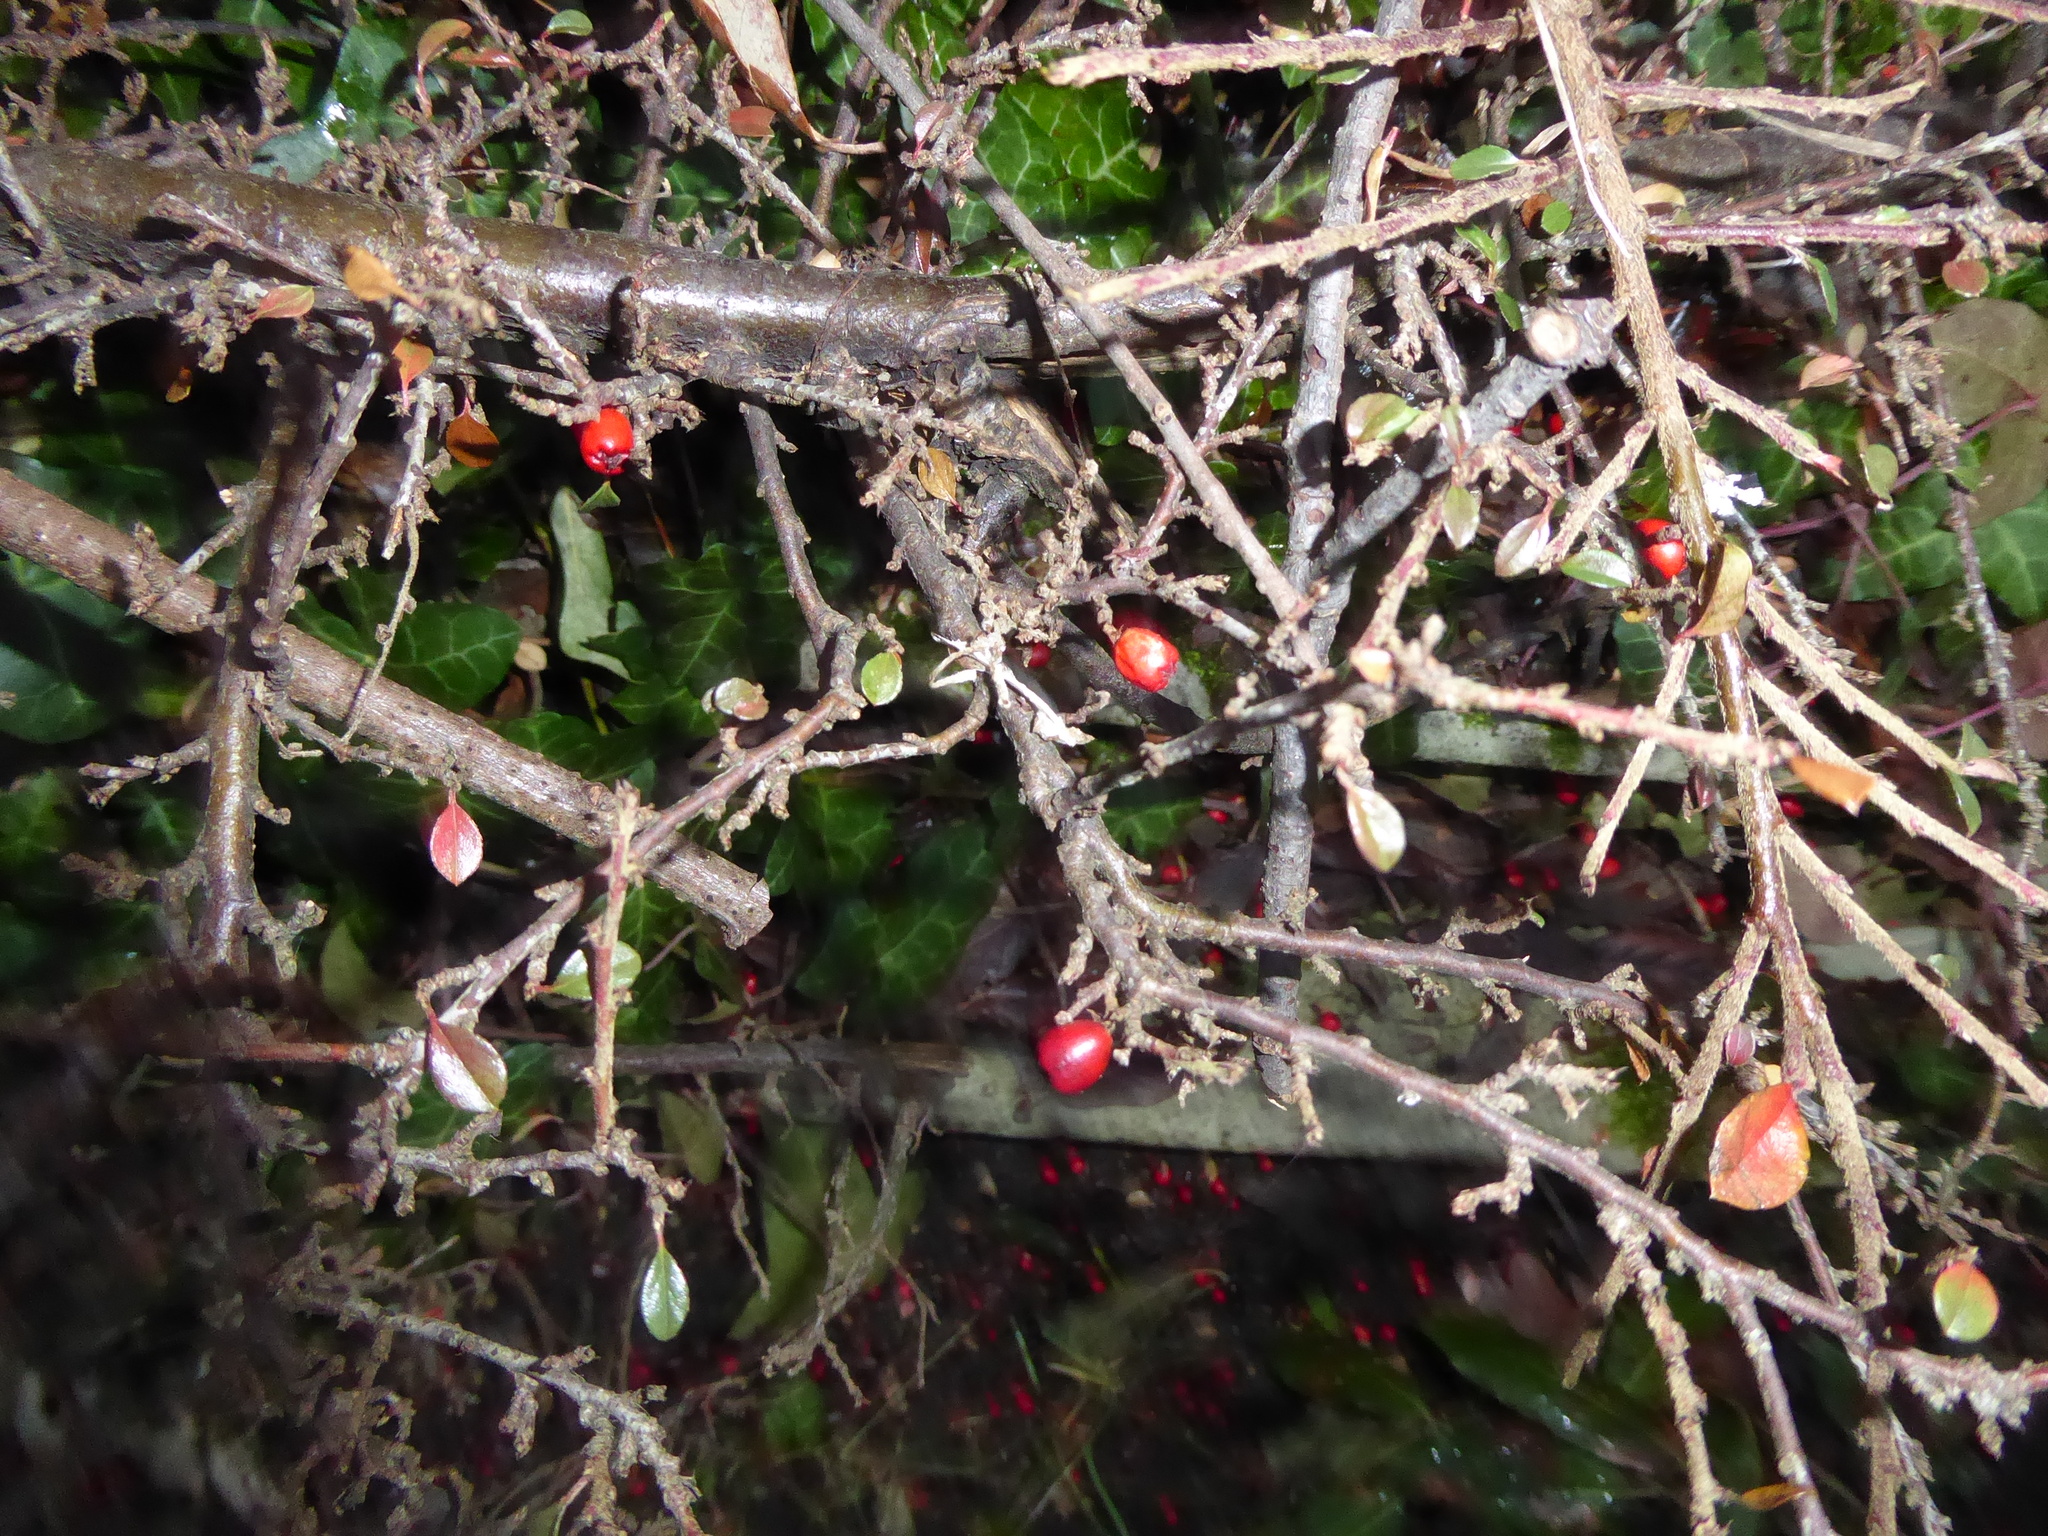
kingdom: Plantae
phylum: Tracheophyta
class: Magnoliopsida
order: Rosales
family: Rosaceae
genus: Cotoneaster
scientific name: Cotoneaster horizontalis
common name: Wall cotoneaster
